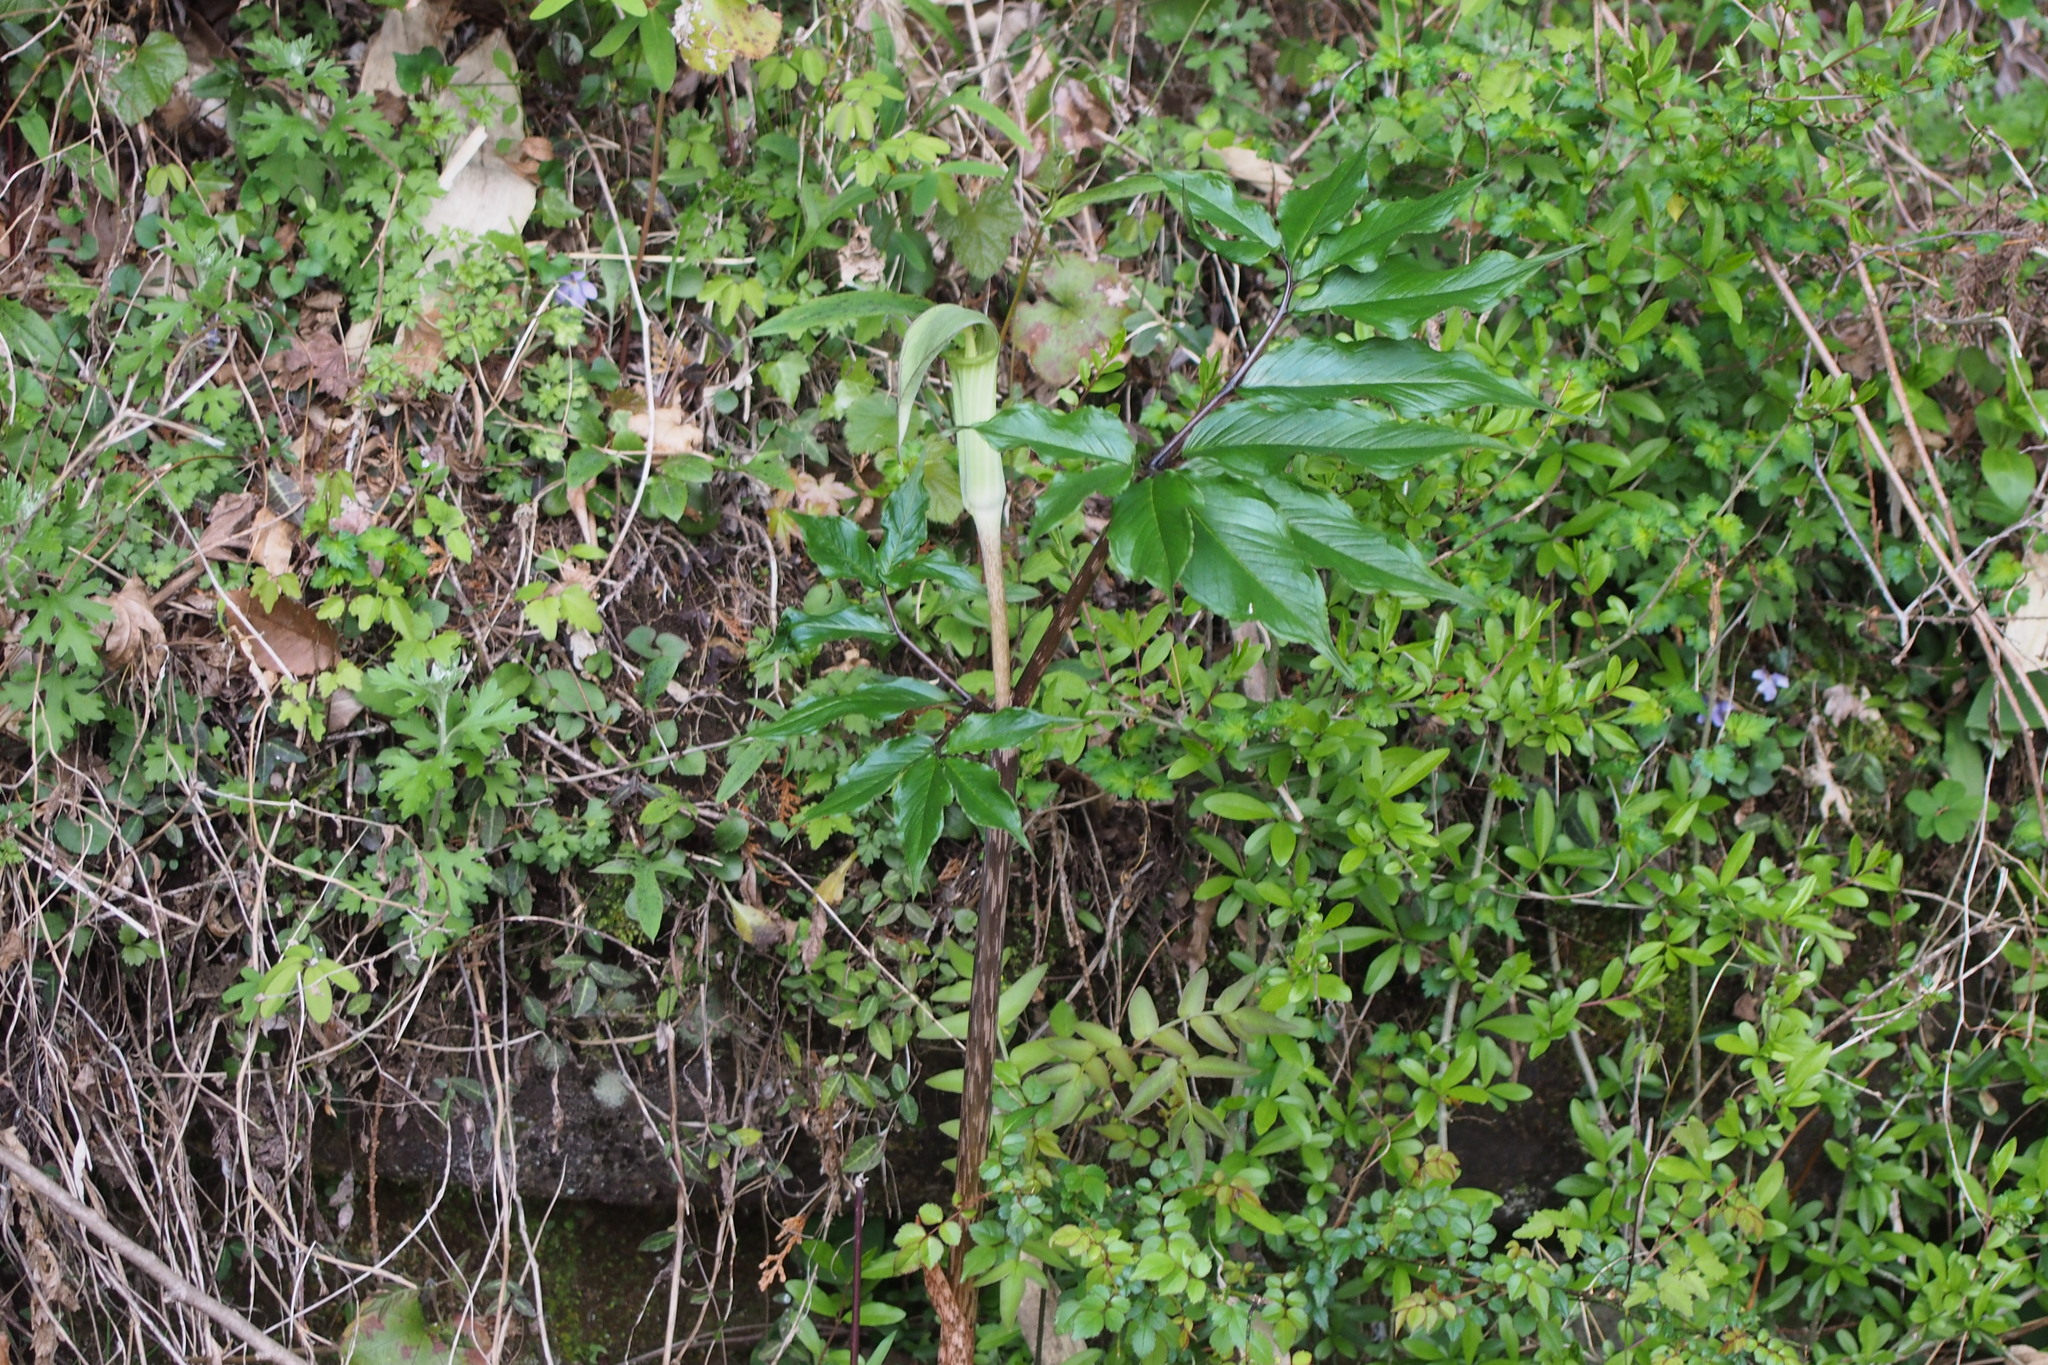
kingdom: Plantae
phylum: Tracheophyta
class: Liliopsida
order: Alismatales
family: Araceae
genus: Arisaema
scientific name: Arisaema yamatense
